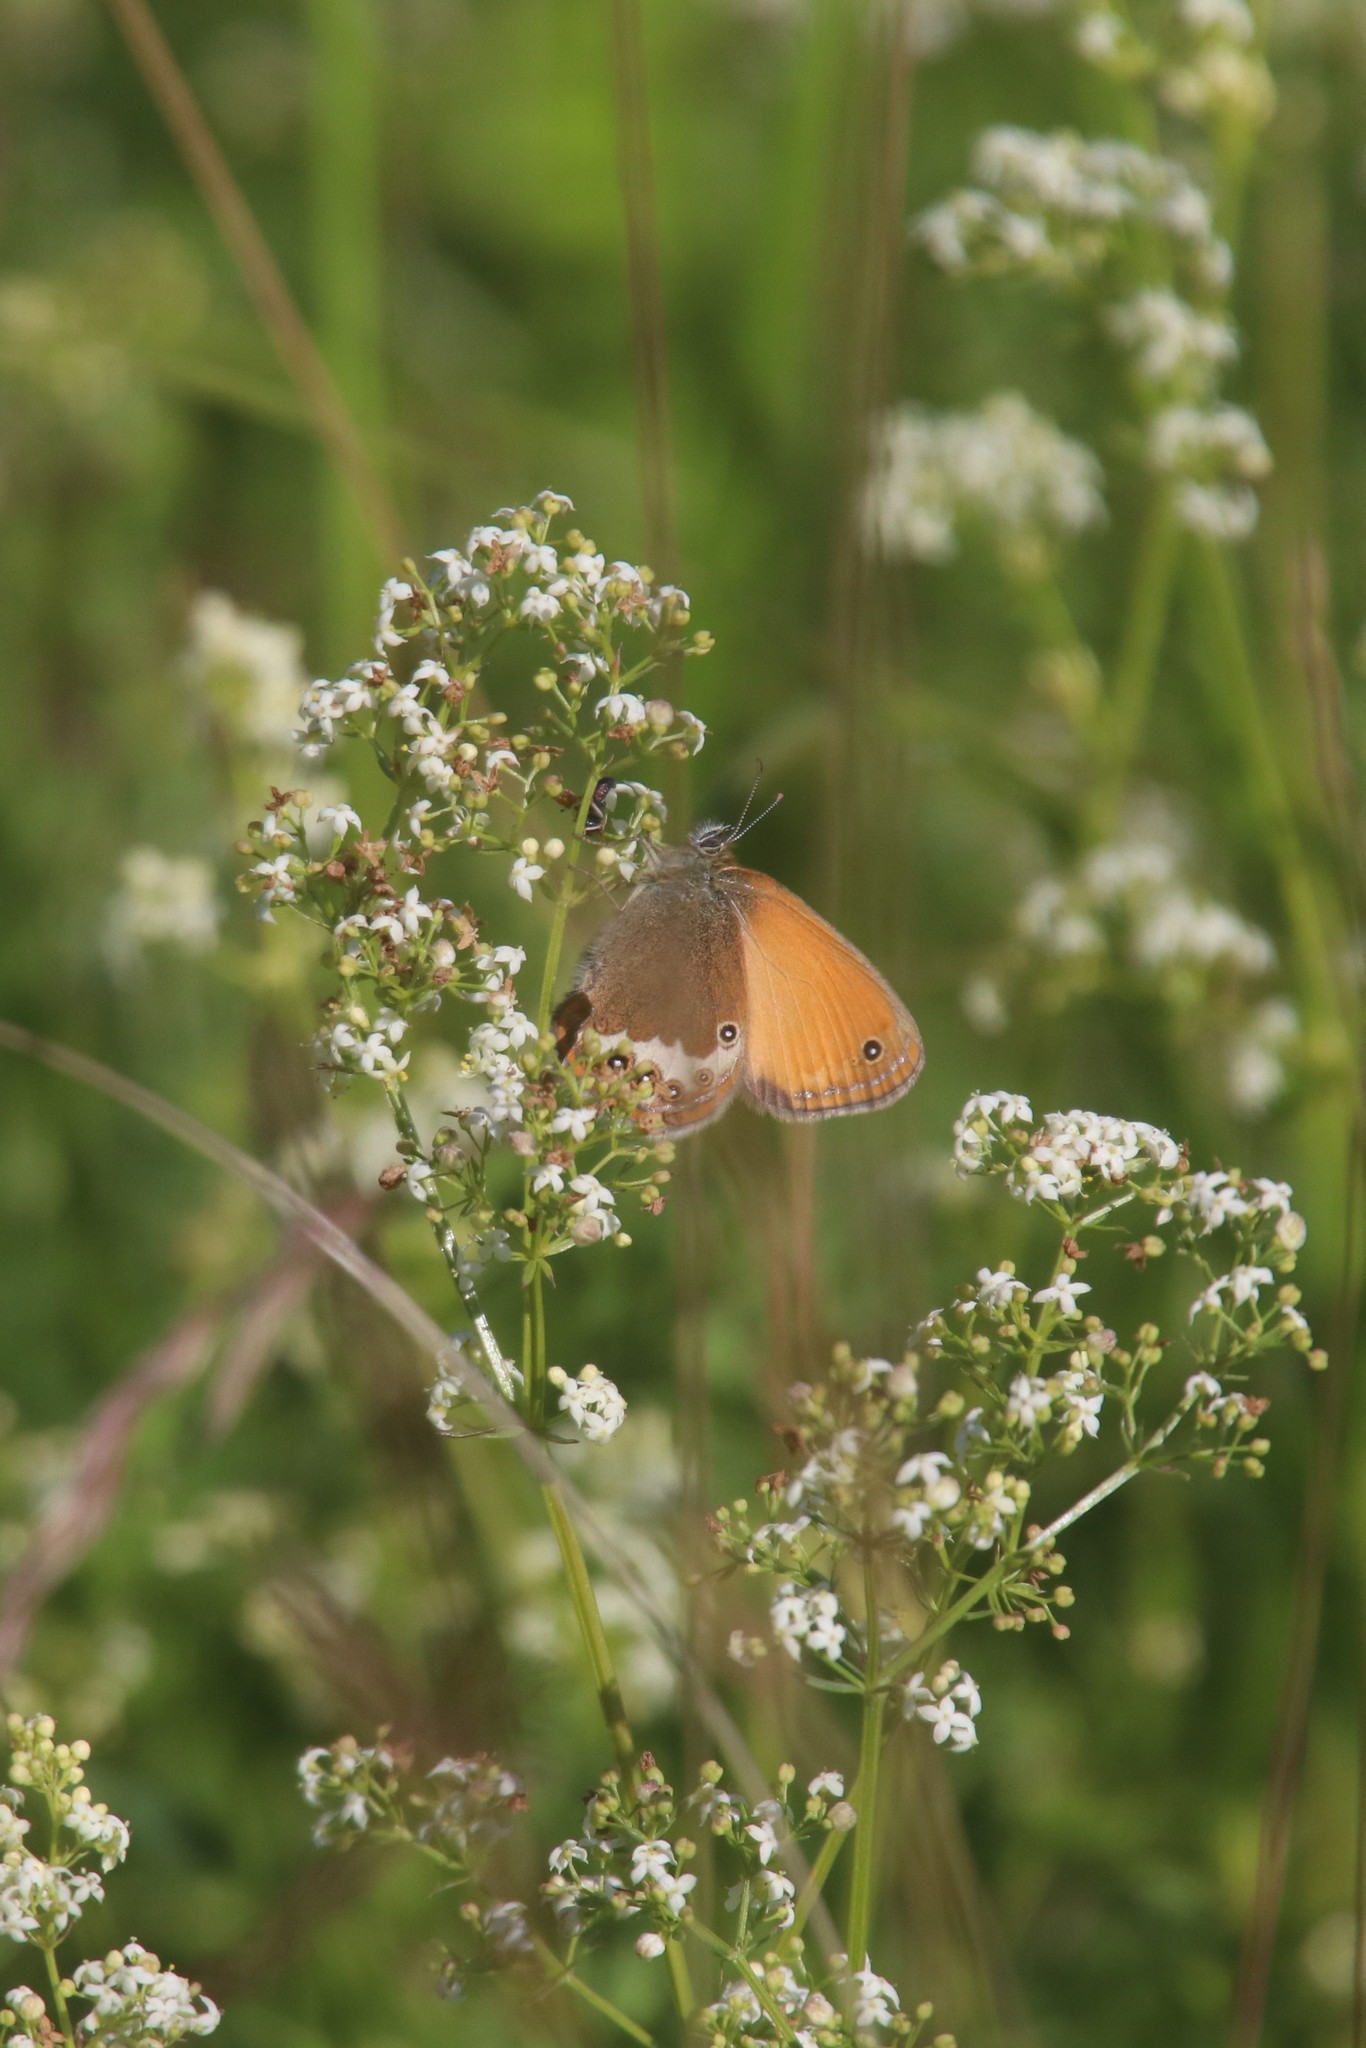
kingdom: Animalia
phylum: Arthropoda
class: Insecta
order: Lepidoptera
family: Nymphalidae
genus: Coenonympha
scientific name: Coenonympha arcania
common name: Pearly heath
